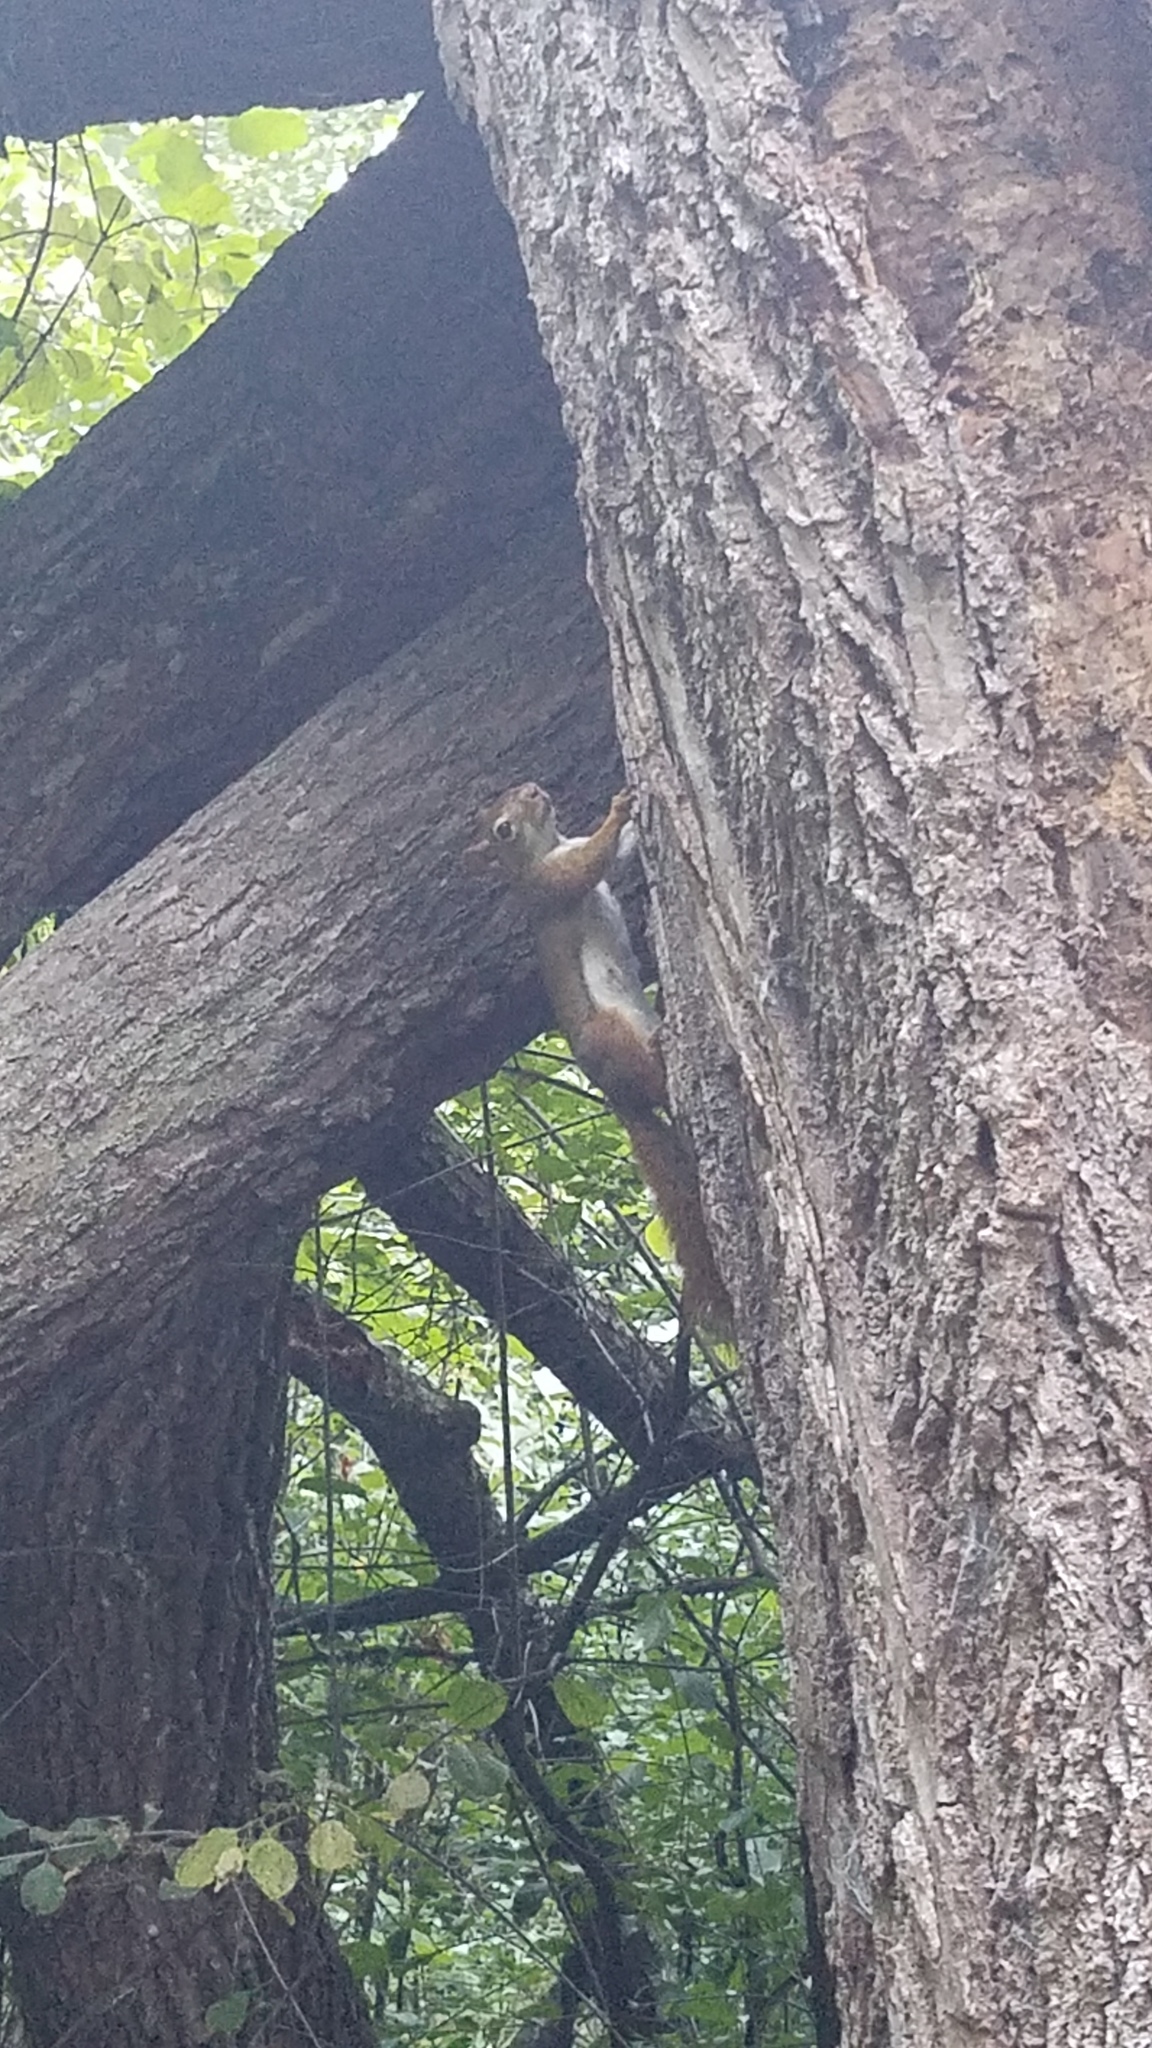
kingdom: Animalia
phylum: Chordata
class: Mammalia
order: Rodentia
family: Sciuridae
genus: Tamiasciurus
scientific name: Tamiasciurus hudsonicus
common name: Red squirrel
